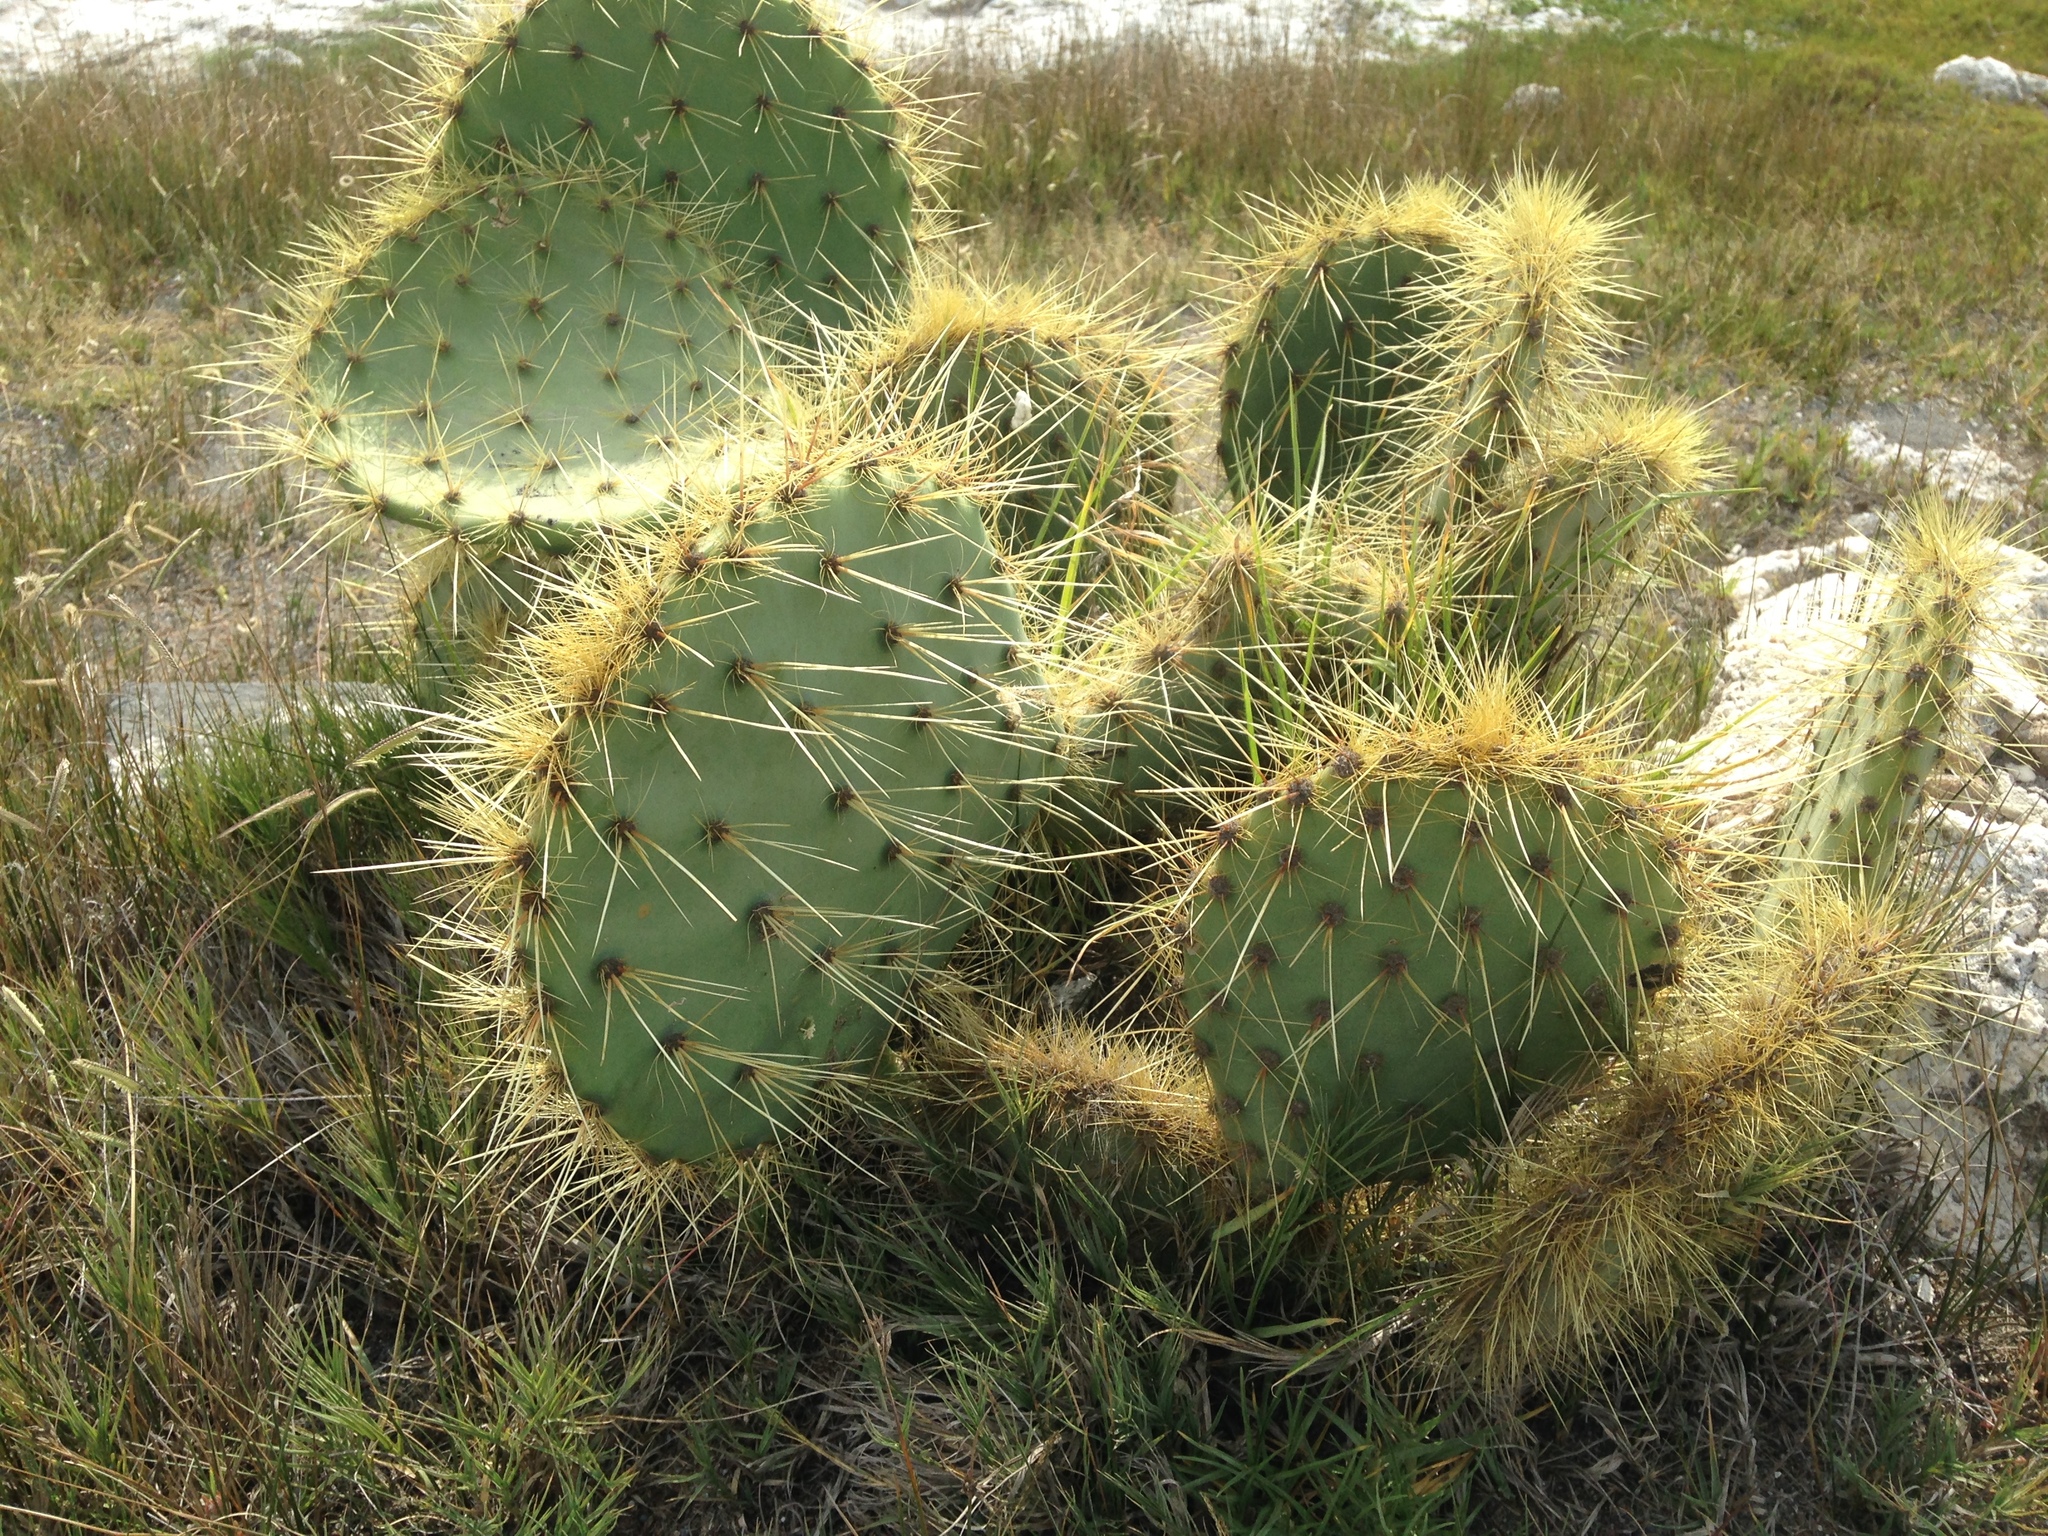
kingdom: Plantae
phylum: Tracheophyta
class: Magnoliopsida
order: Caryophyllales
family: Cactaceae
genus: Opuntia
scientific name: Opuntia huajuapensis
